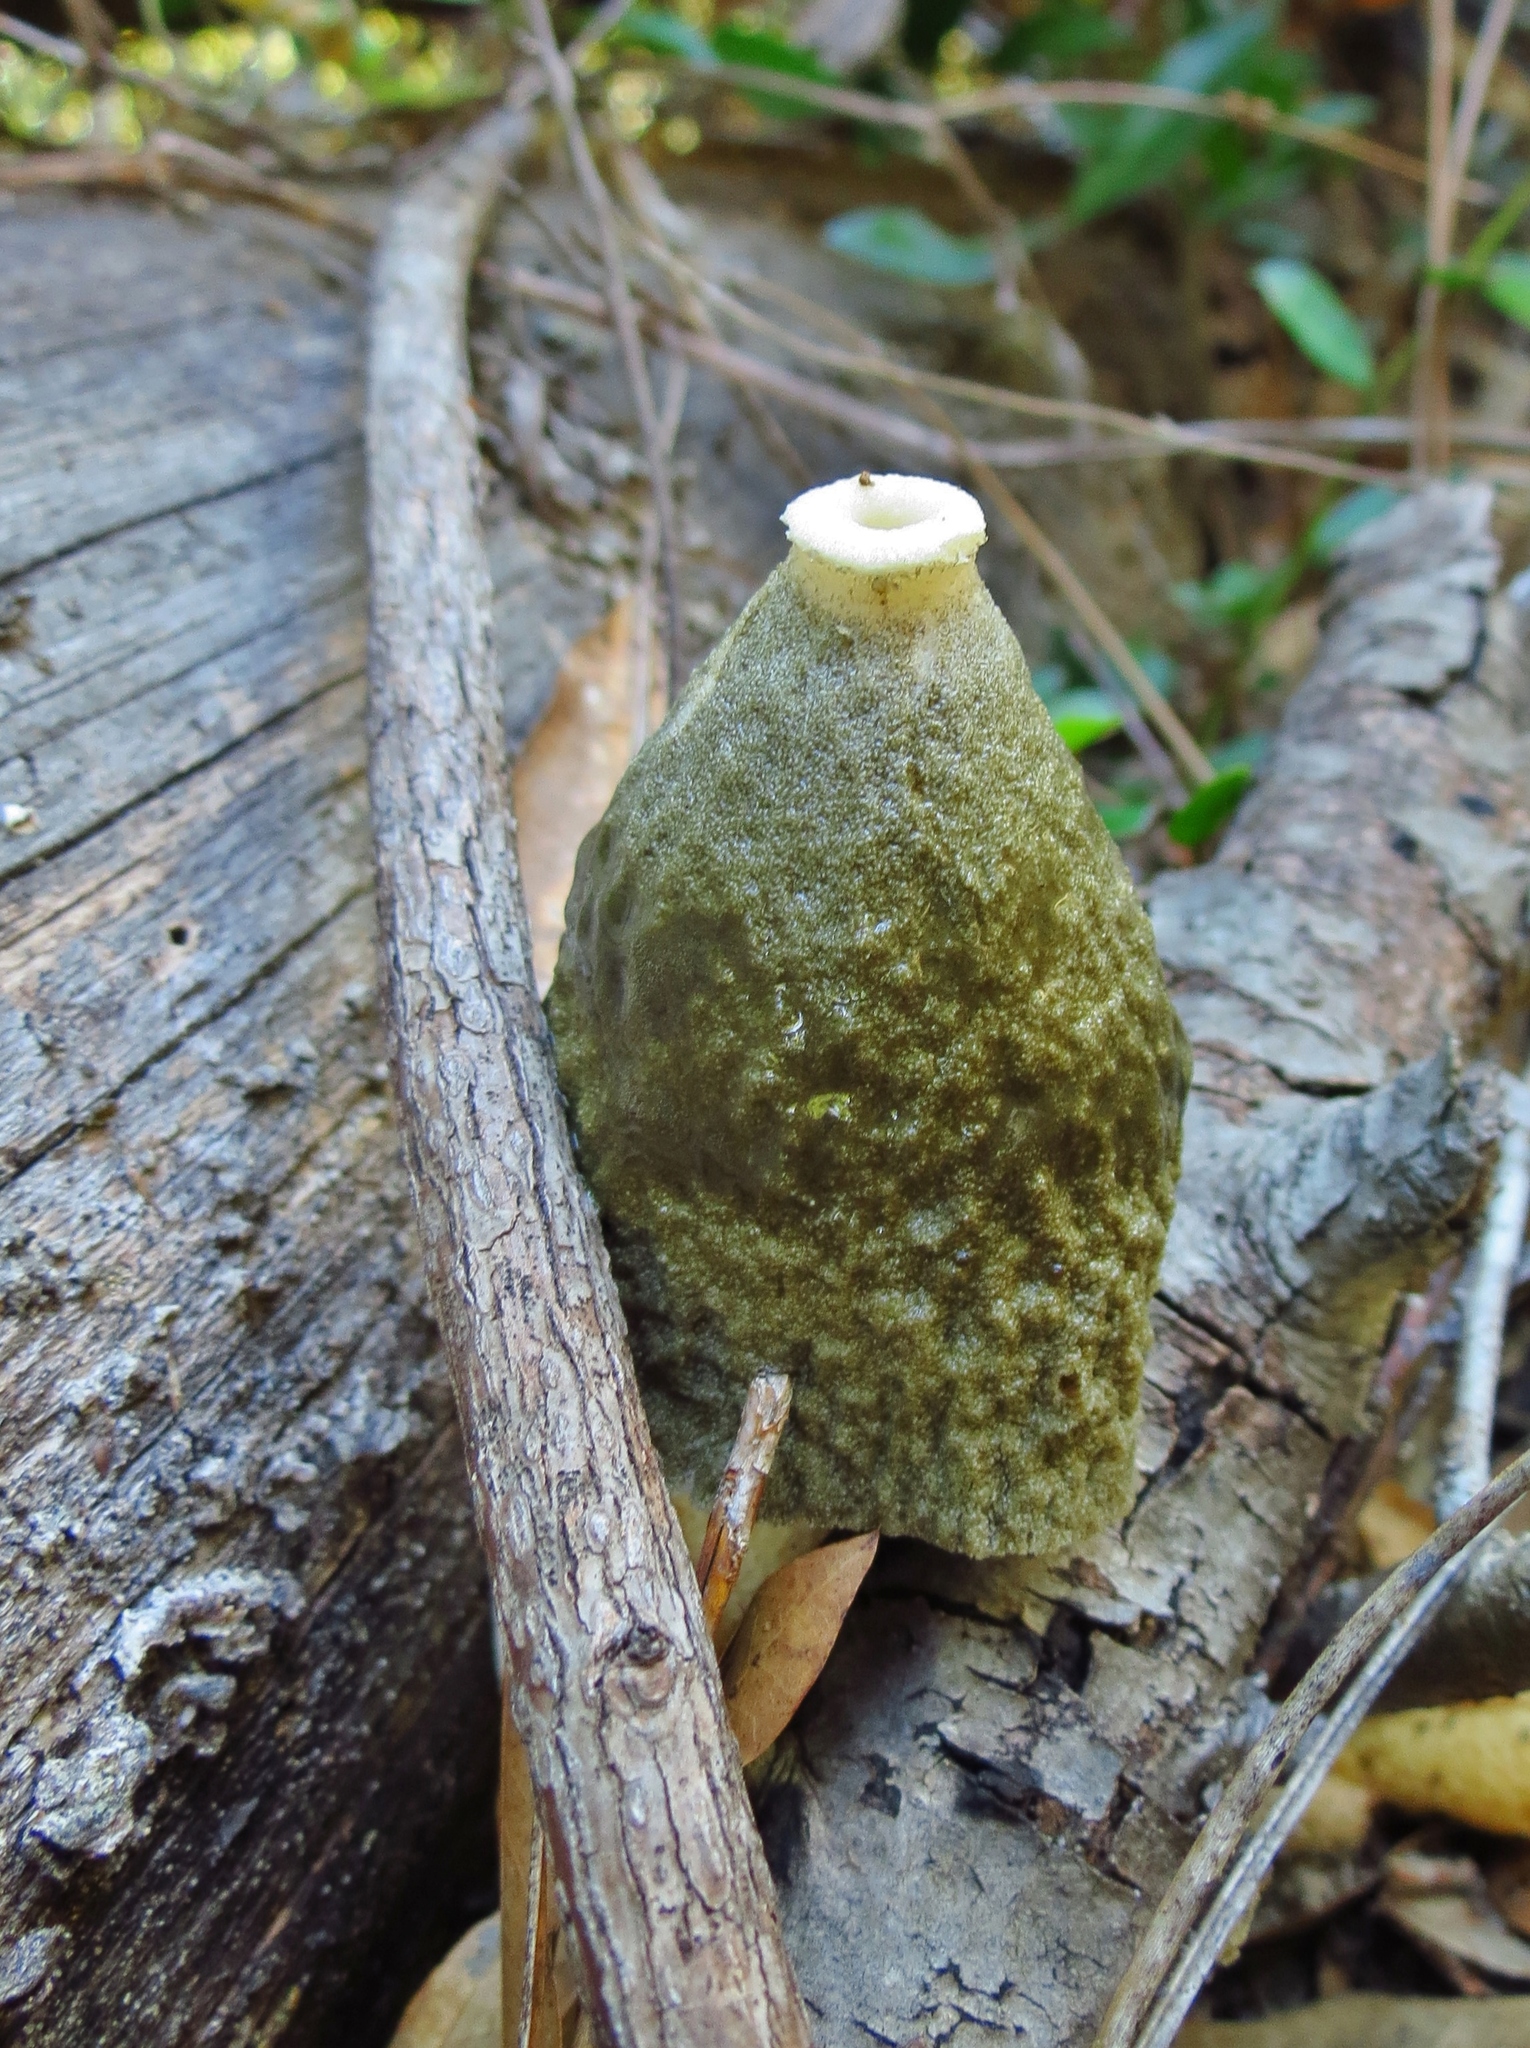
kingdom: Fungi
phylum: Basidiomycota
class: Agaricomycetes
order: Phallales
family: Phallaceae
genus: Phallus
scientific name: Phallus ravenelii
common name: Ravenel's stinkhorn
